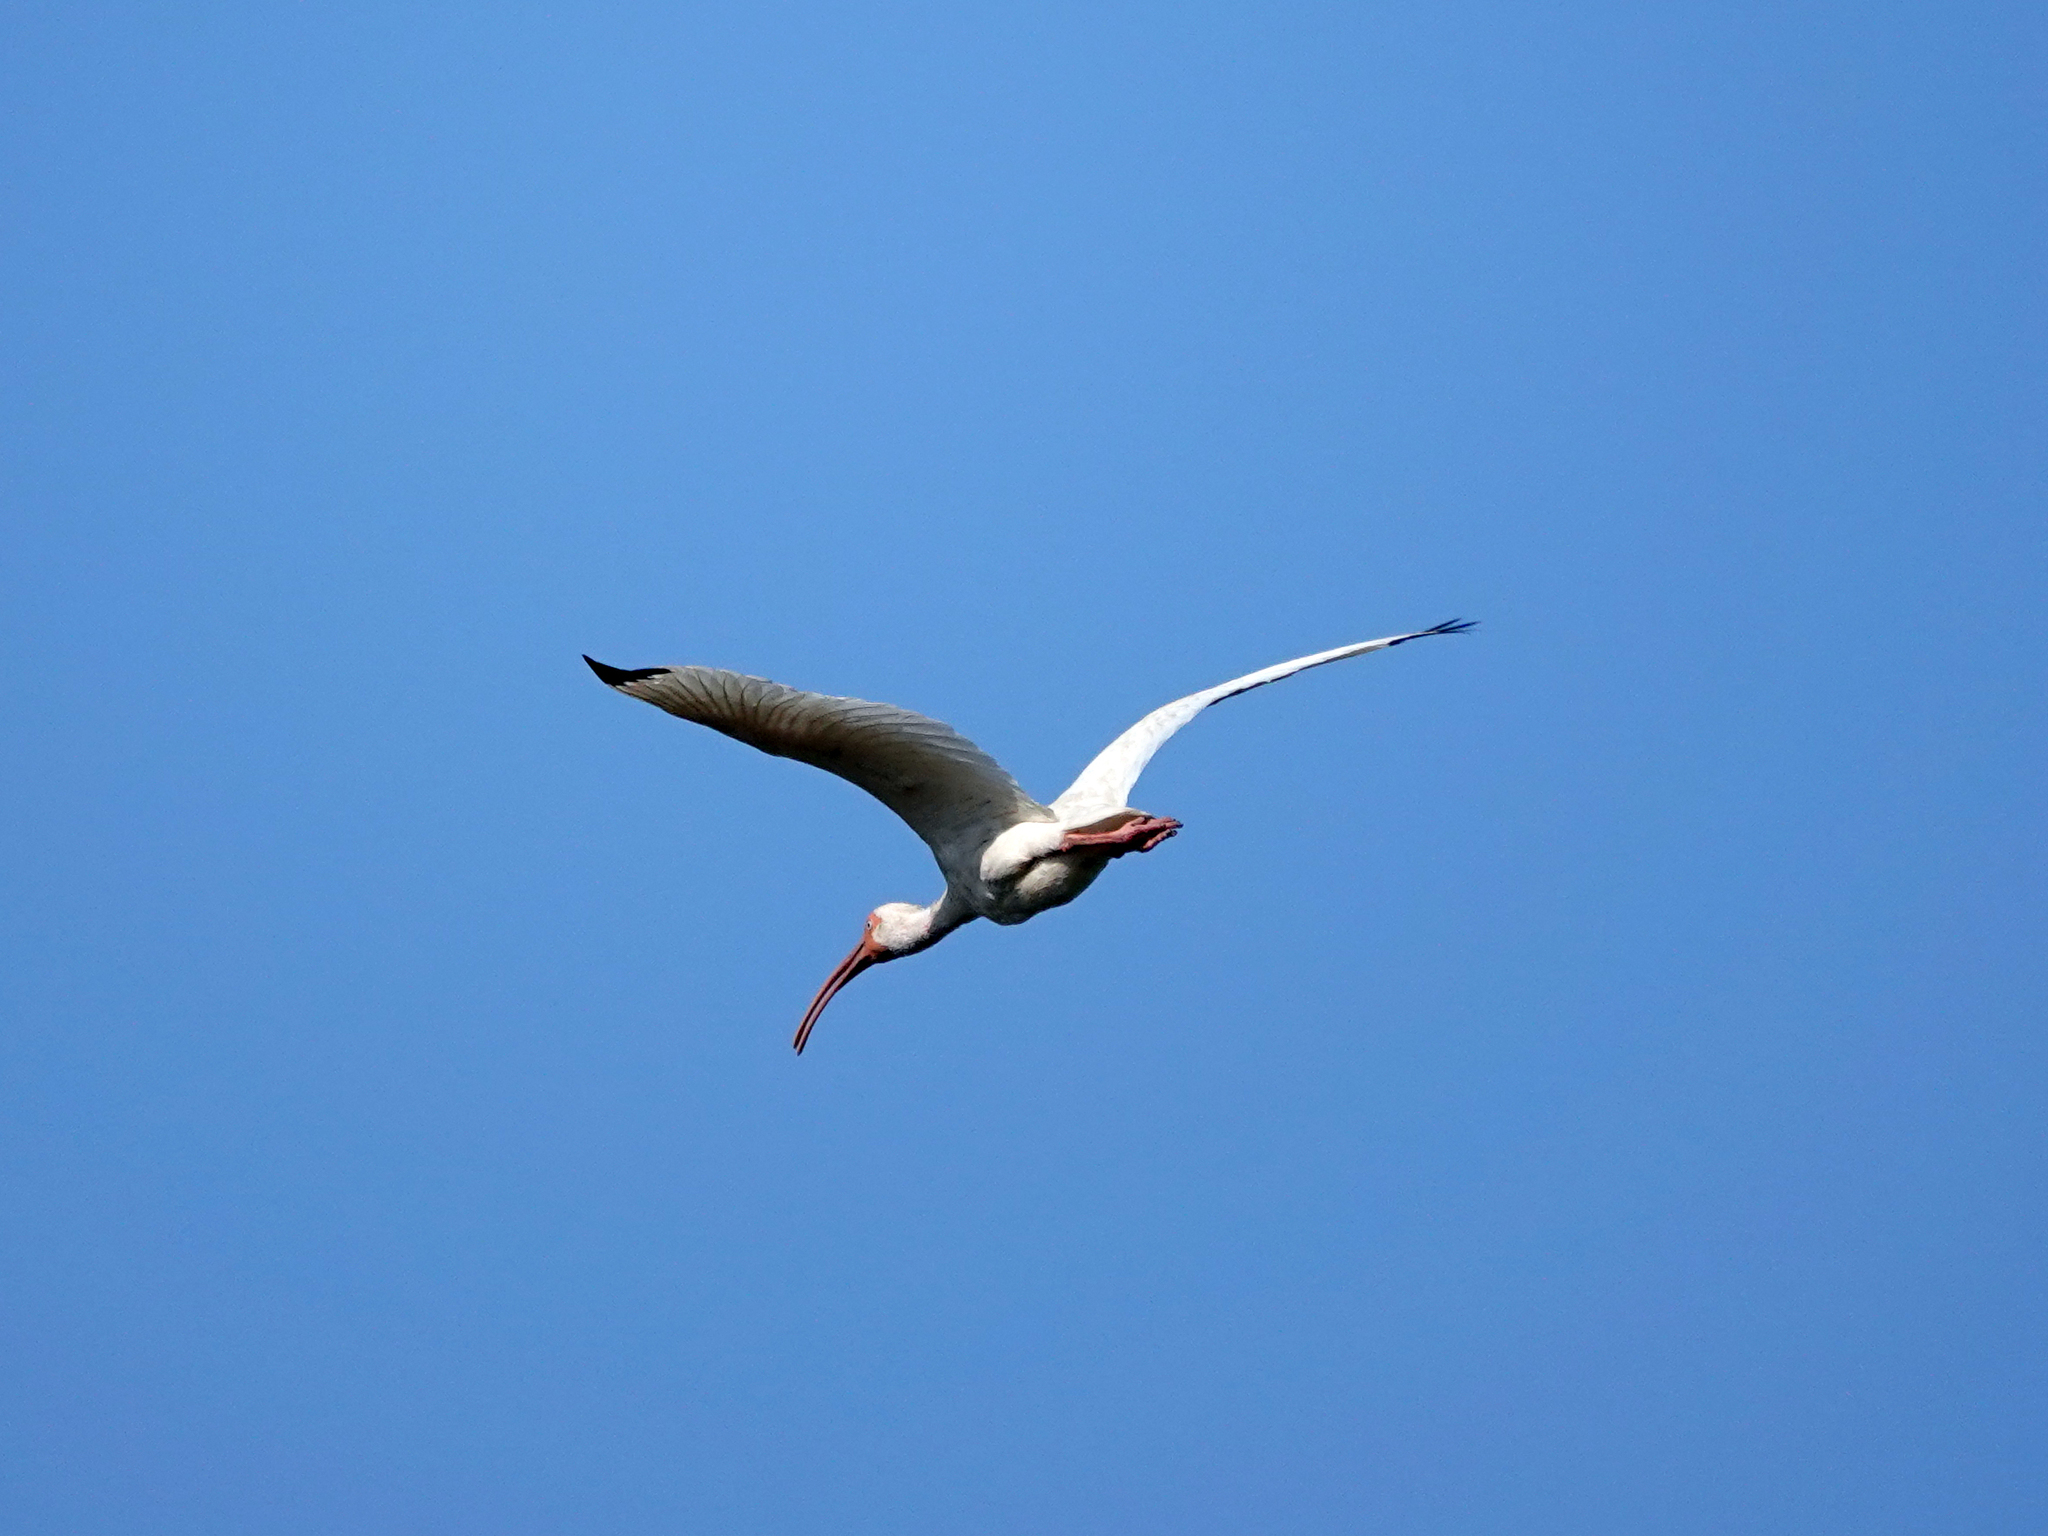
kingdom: Animalia
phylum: Chordata
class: Aves
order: Pelecaniformes
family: Threskiornithidae
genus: Eudocimus
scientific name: Eudocimus albus
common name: White ibis
